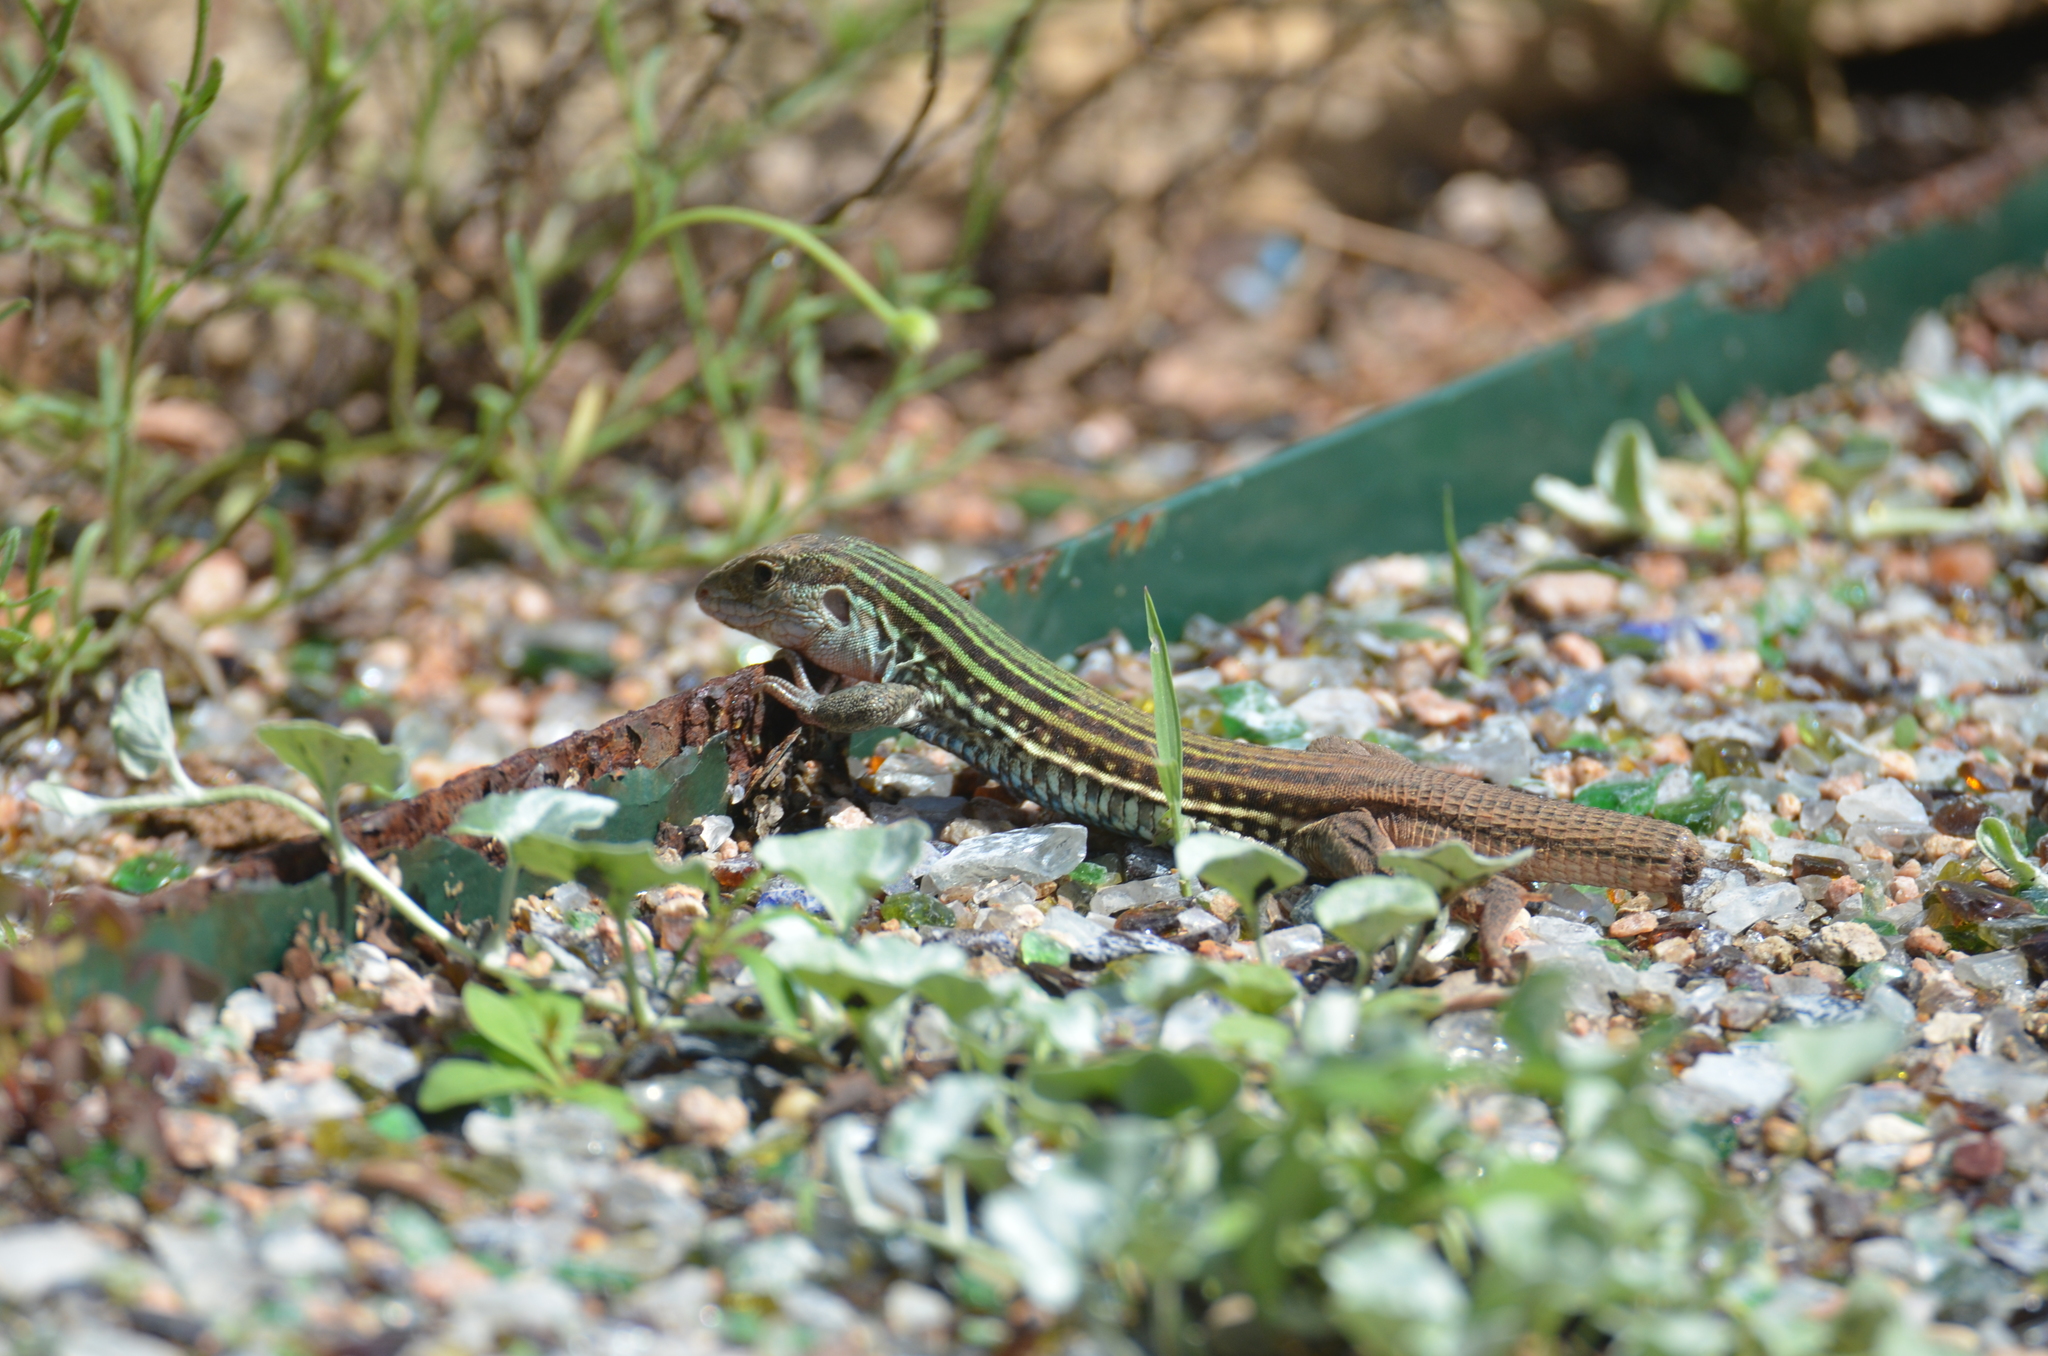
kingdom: Animalia
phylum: Chordata
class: Squamata
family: Teiidae
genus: Aspidoscelis
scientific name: Aspidoscelis gularis
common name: Eastern spotted whiptail
